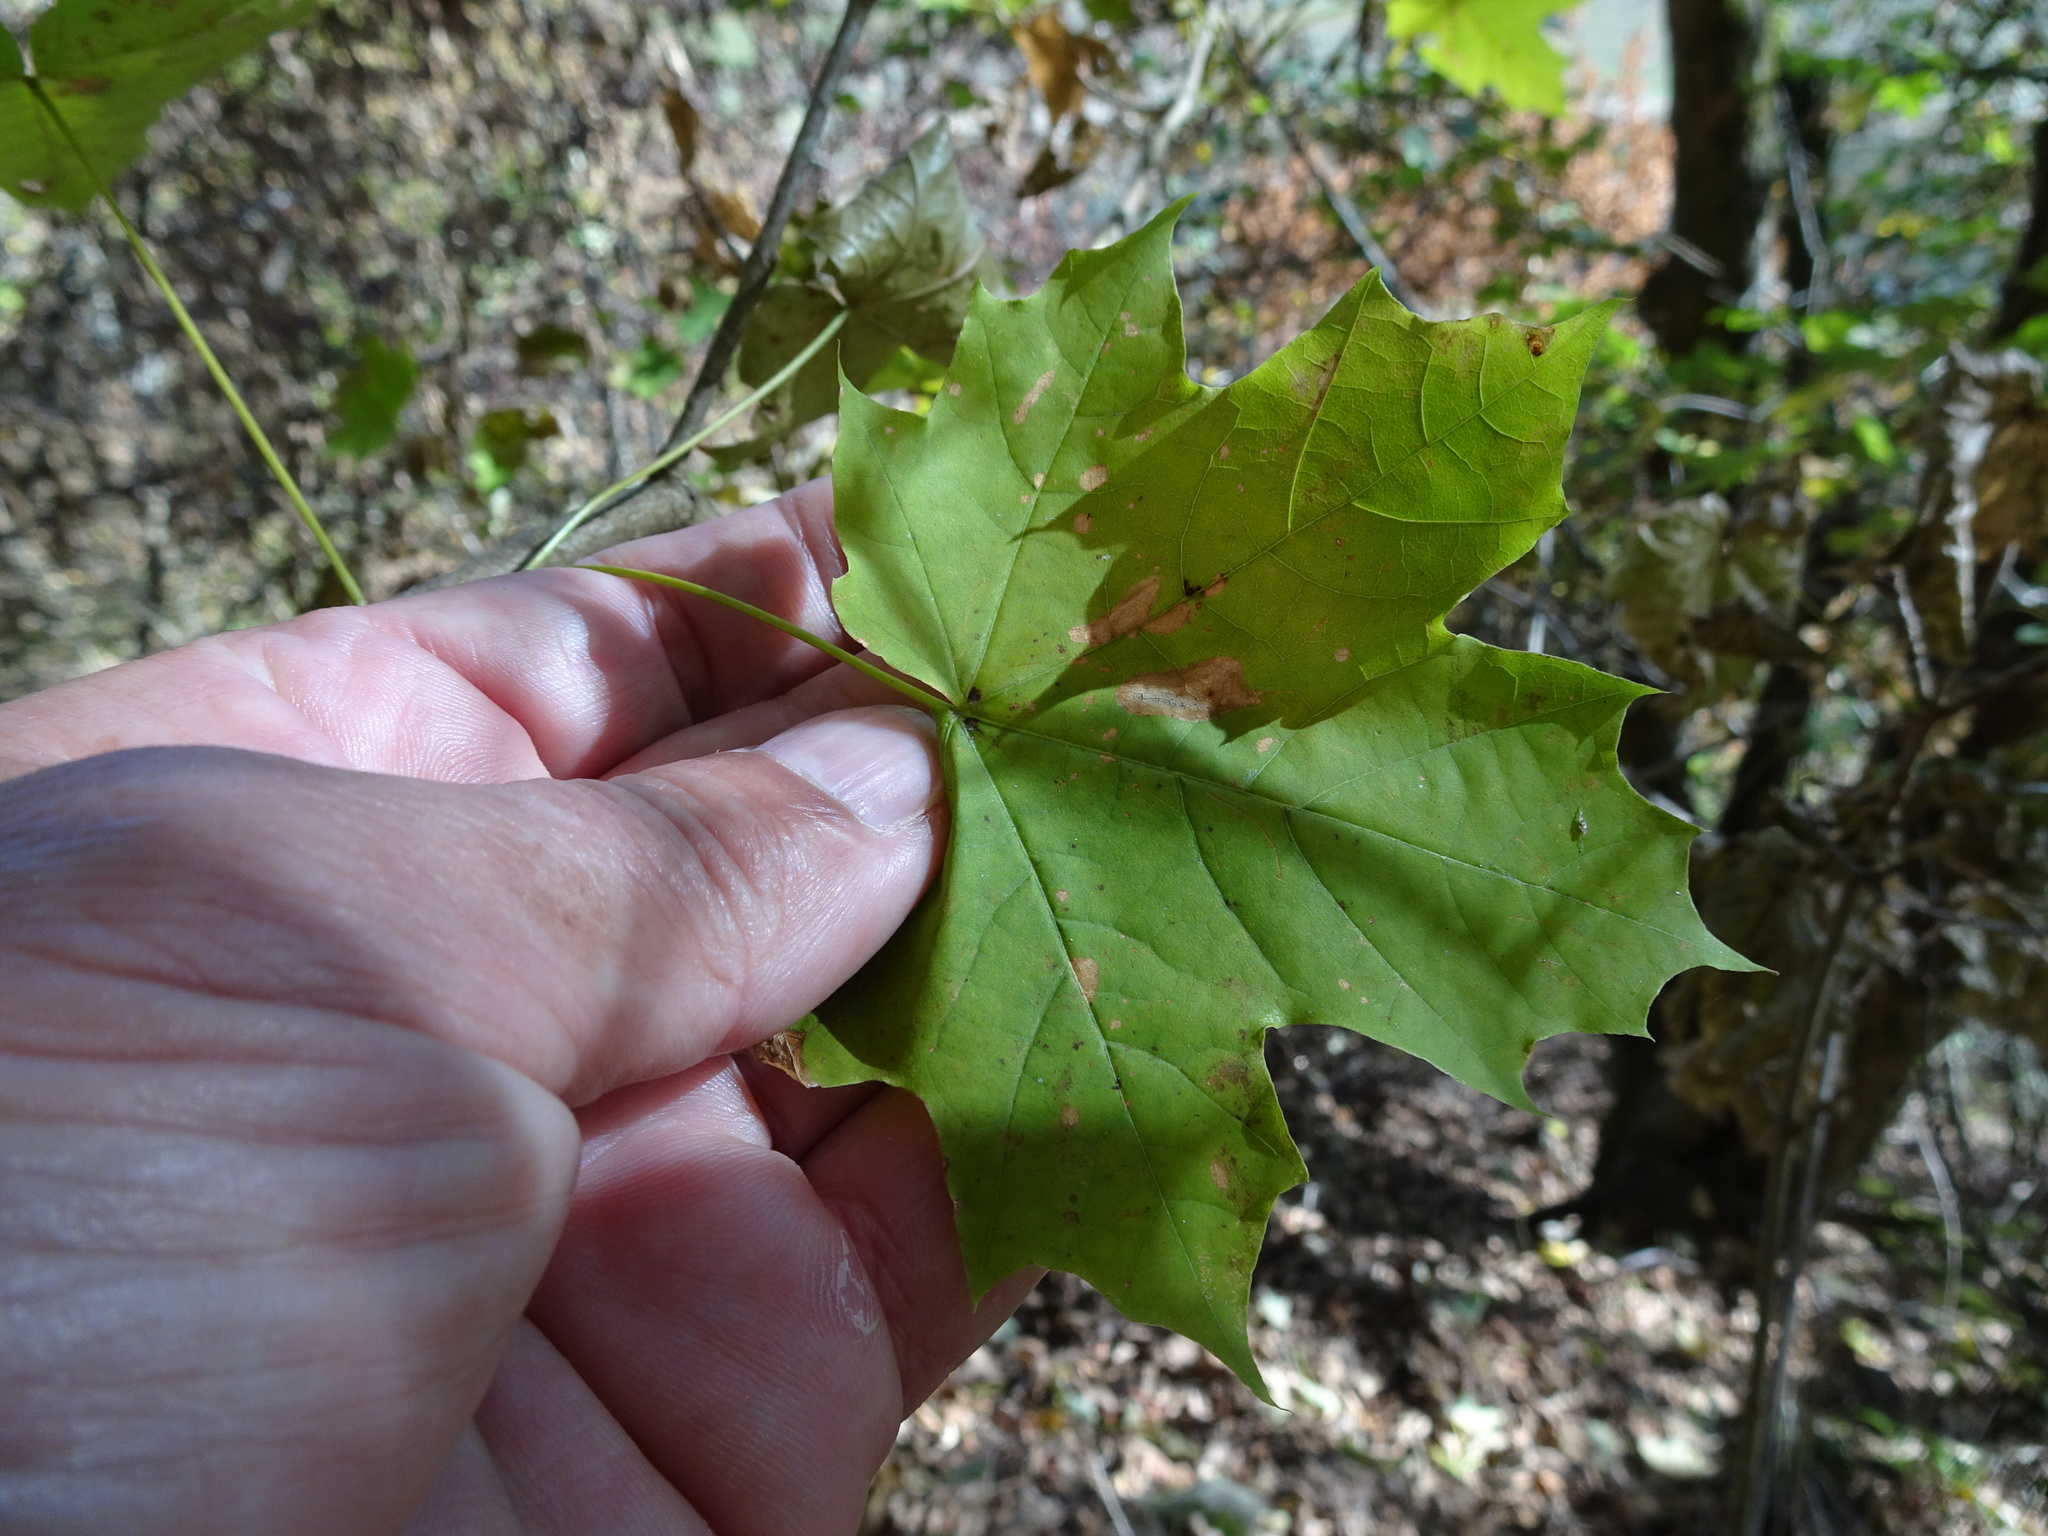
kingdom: Plantae
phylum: Tracheophyta
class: Magnoliopsida
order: Sapindales
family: Sapindaceae
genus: Acer
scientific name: Acer platanoides
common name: Norway maple
